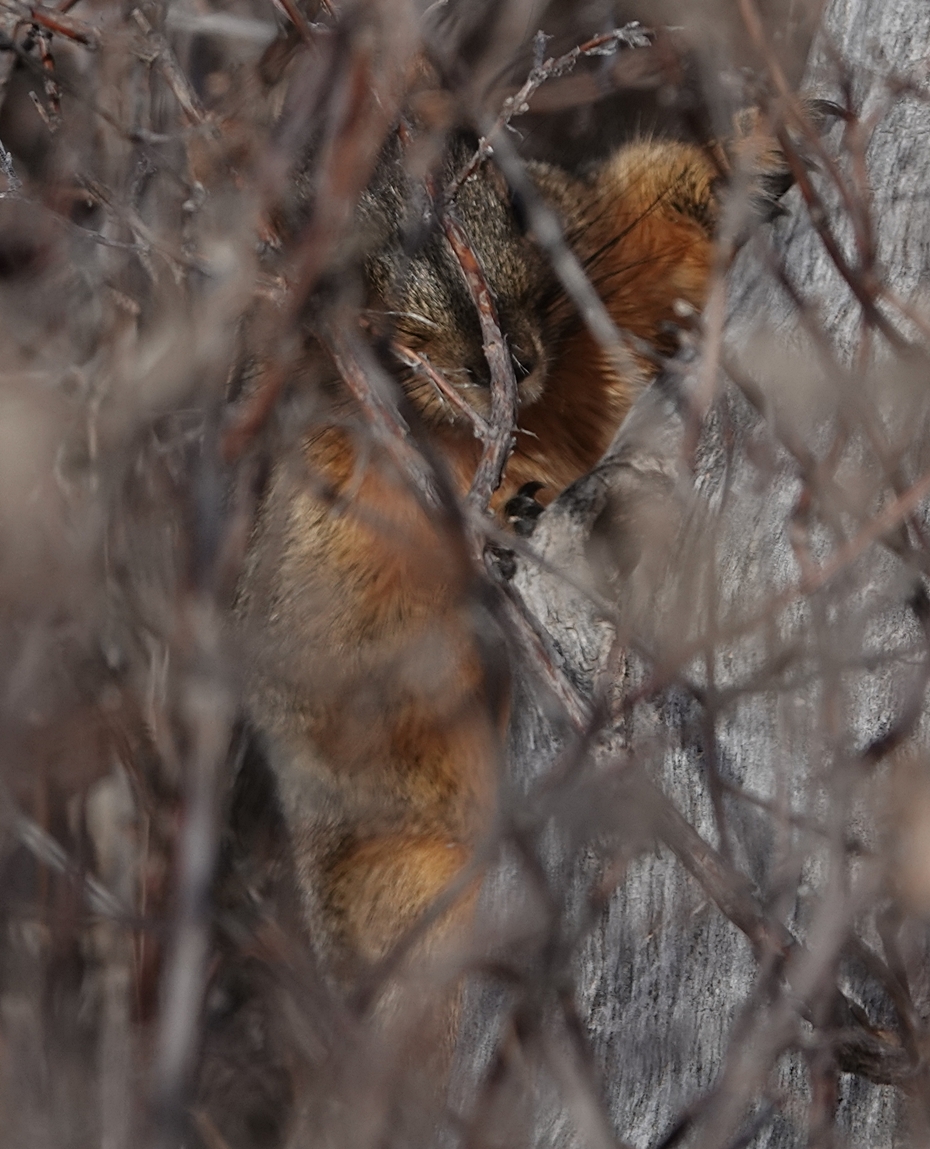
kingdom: Animalia
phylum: Chordata
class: Mammalia
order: Rodentia
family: Sciuridae
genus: Sciurus
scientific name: Sciurus niger
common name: Fox squirrel
